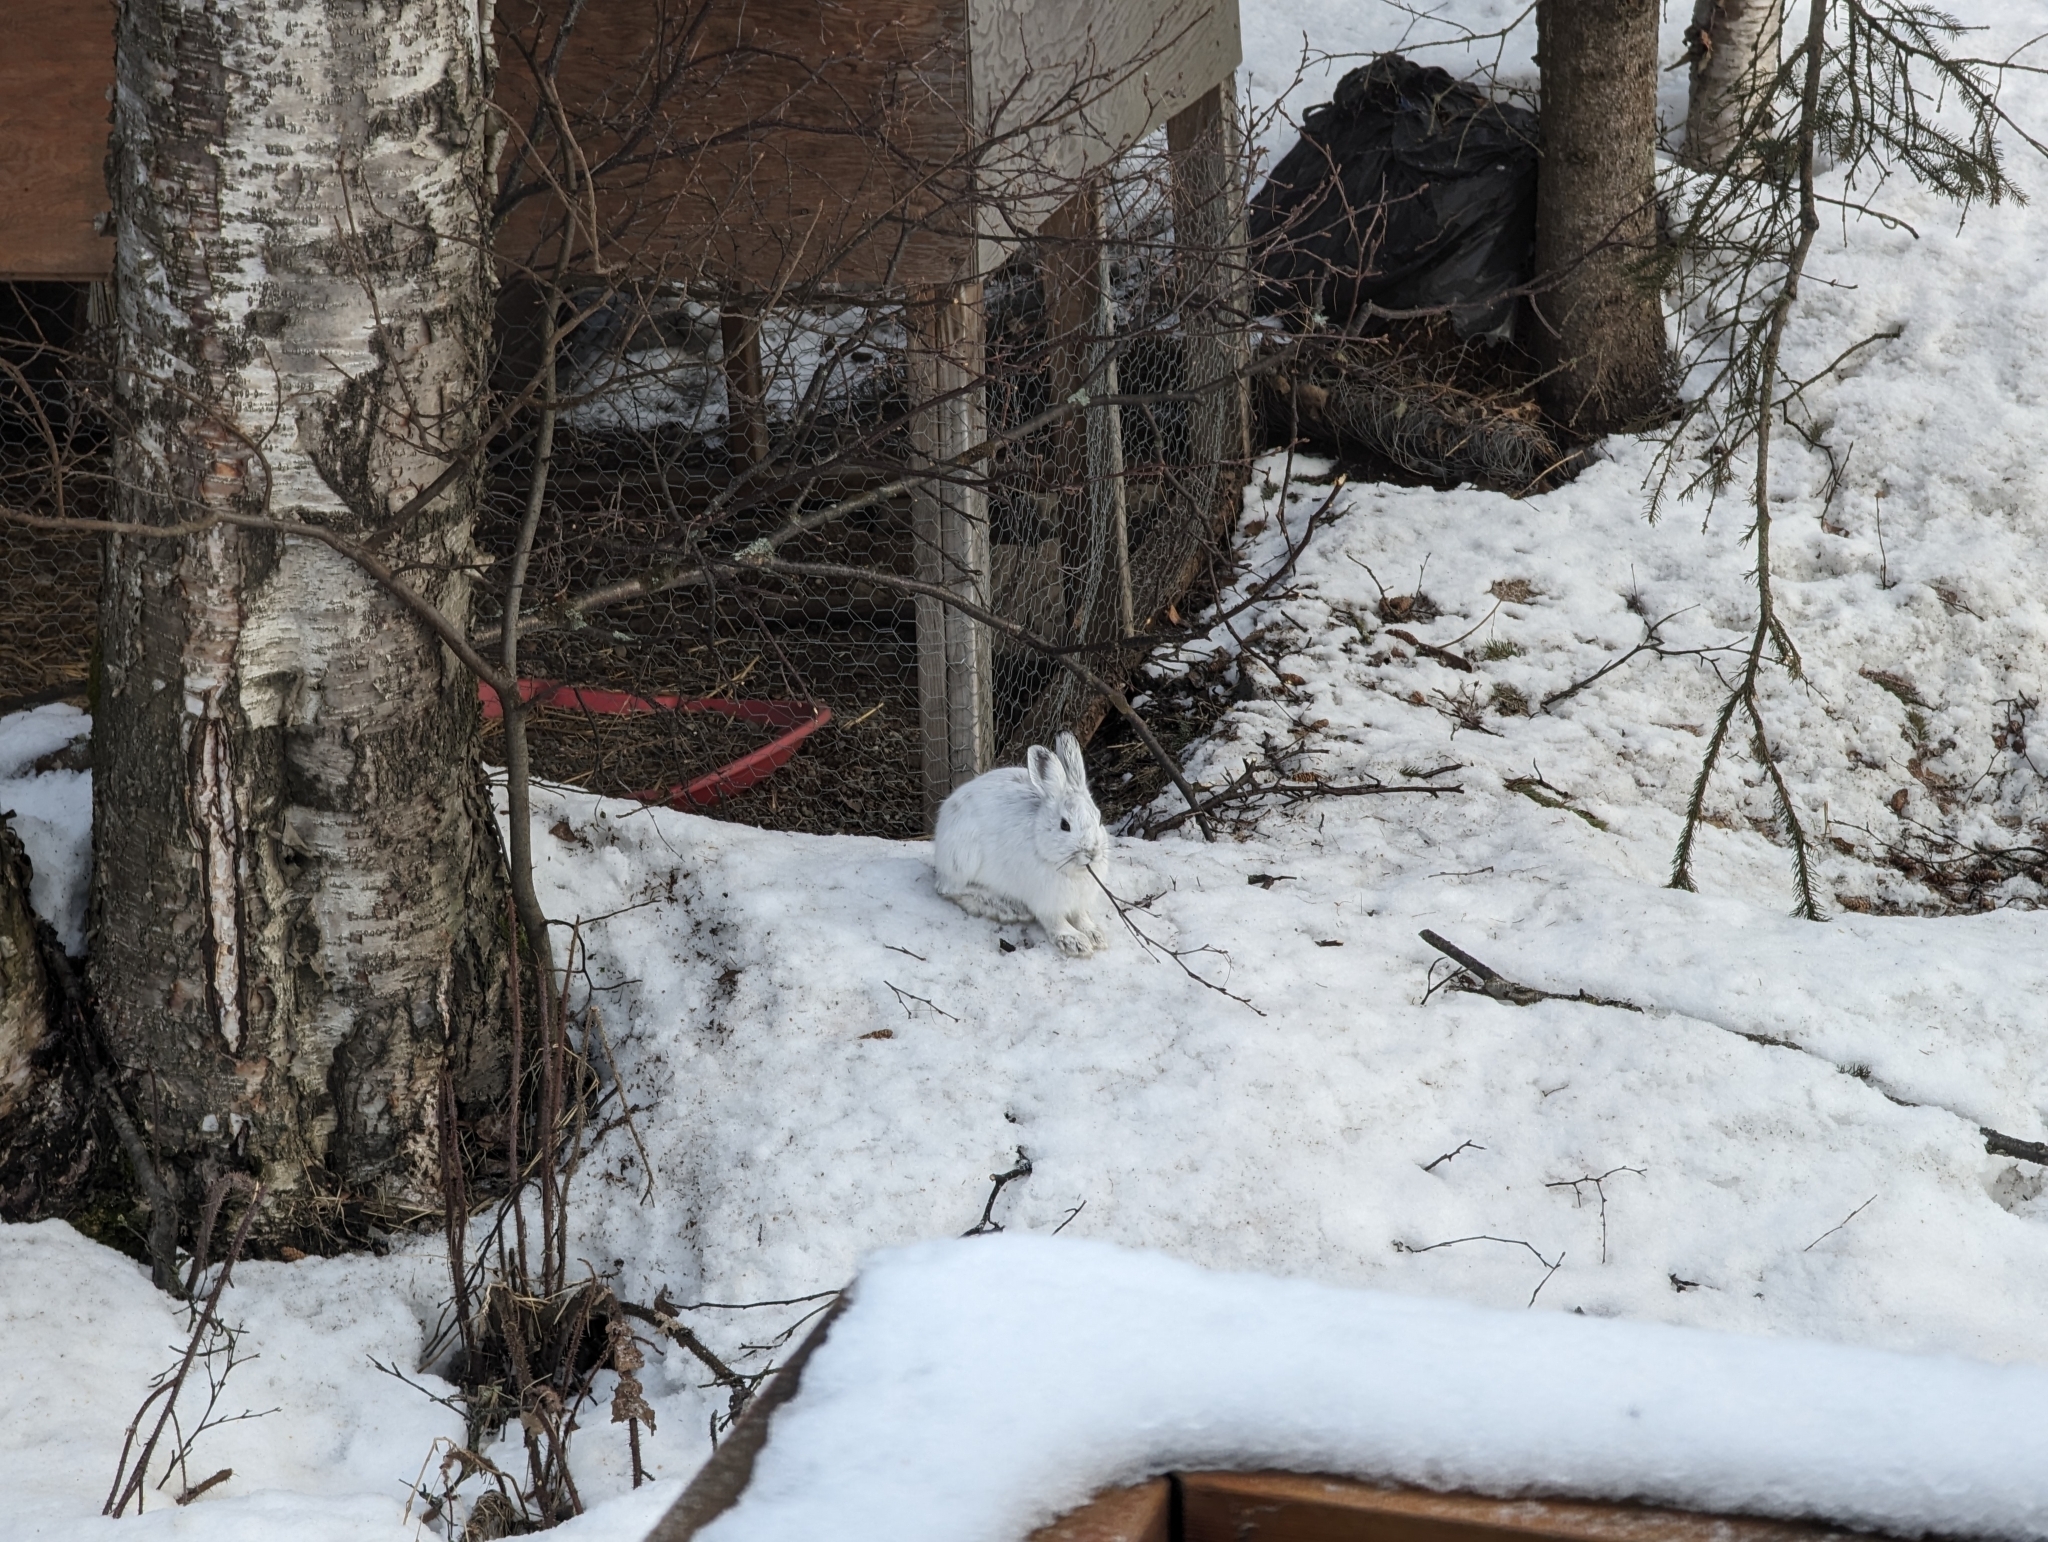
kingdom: Animalia
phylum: Chordata
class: Mammalia
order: Lagomorpha
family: Leporidae
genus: Lepus
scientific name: Lepus americanus
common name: Snowshoe hare
